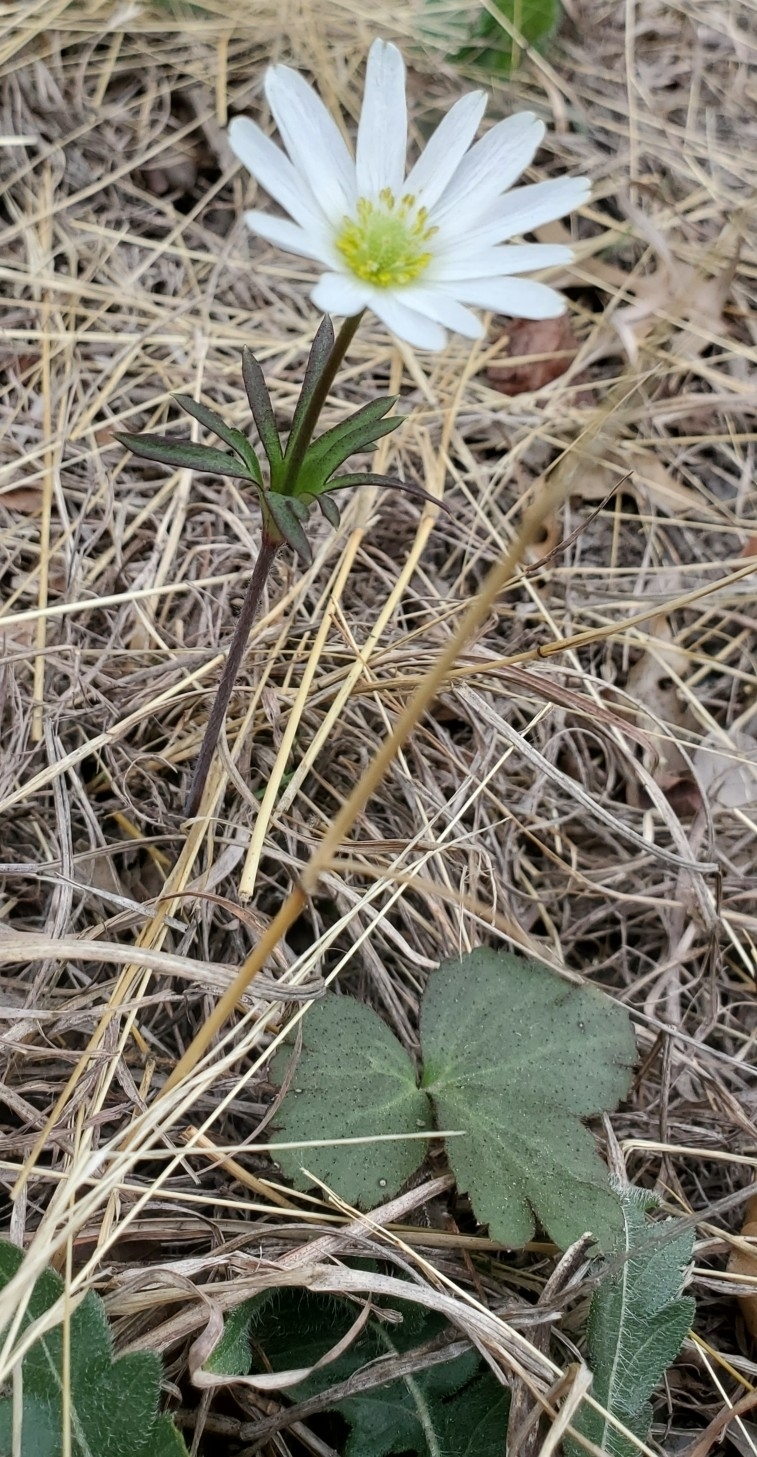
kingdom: Plantae
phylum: Tracheophyta
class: Magnoliopsida
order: Ranunculales
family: Ranunculaceae
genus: Anemone
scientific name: Anemone berlandieri
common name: Ten-petal anemone
